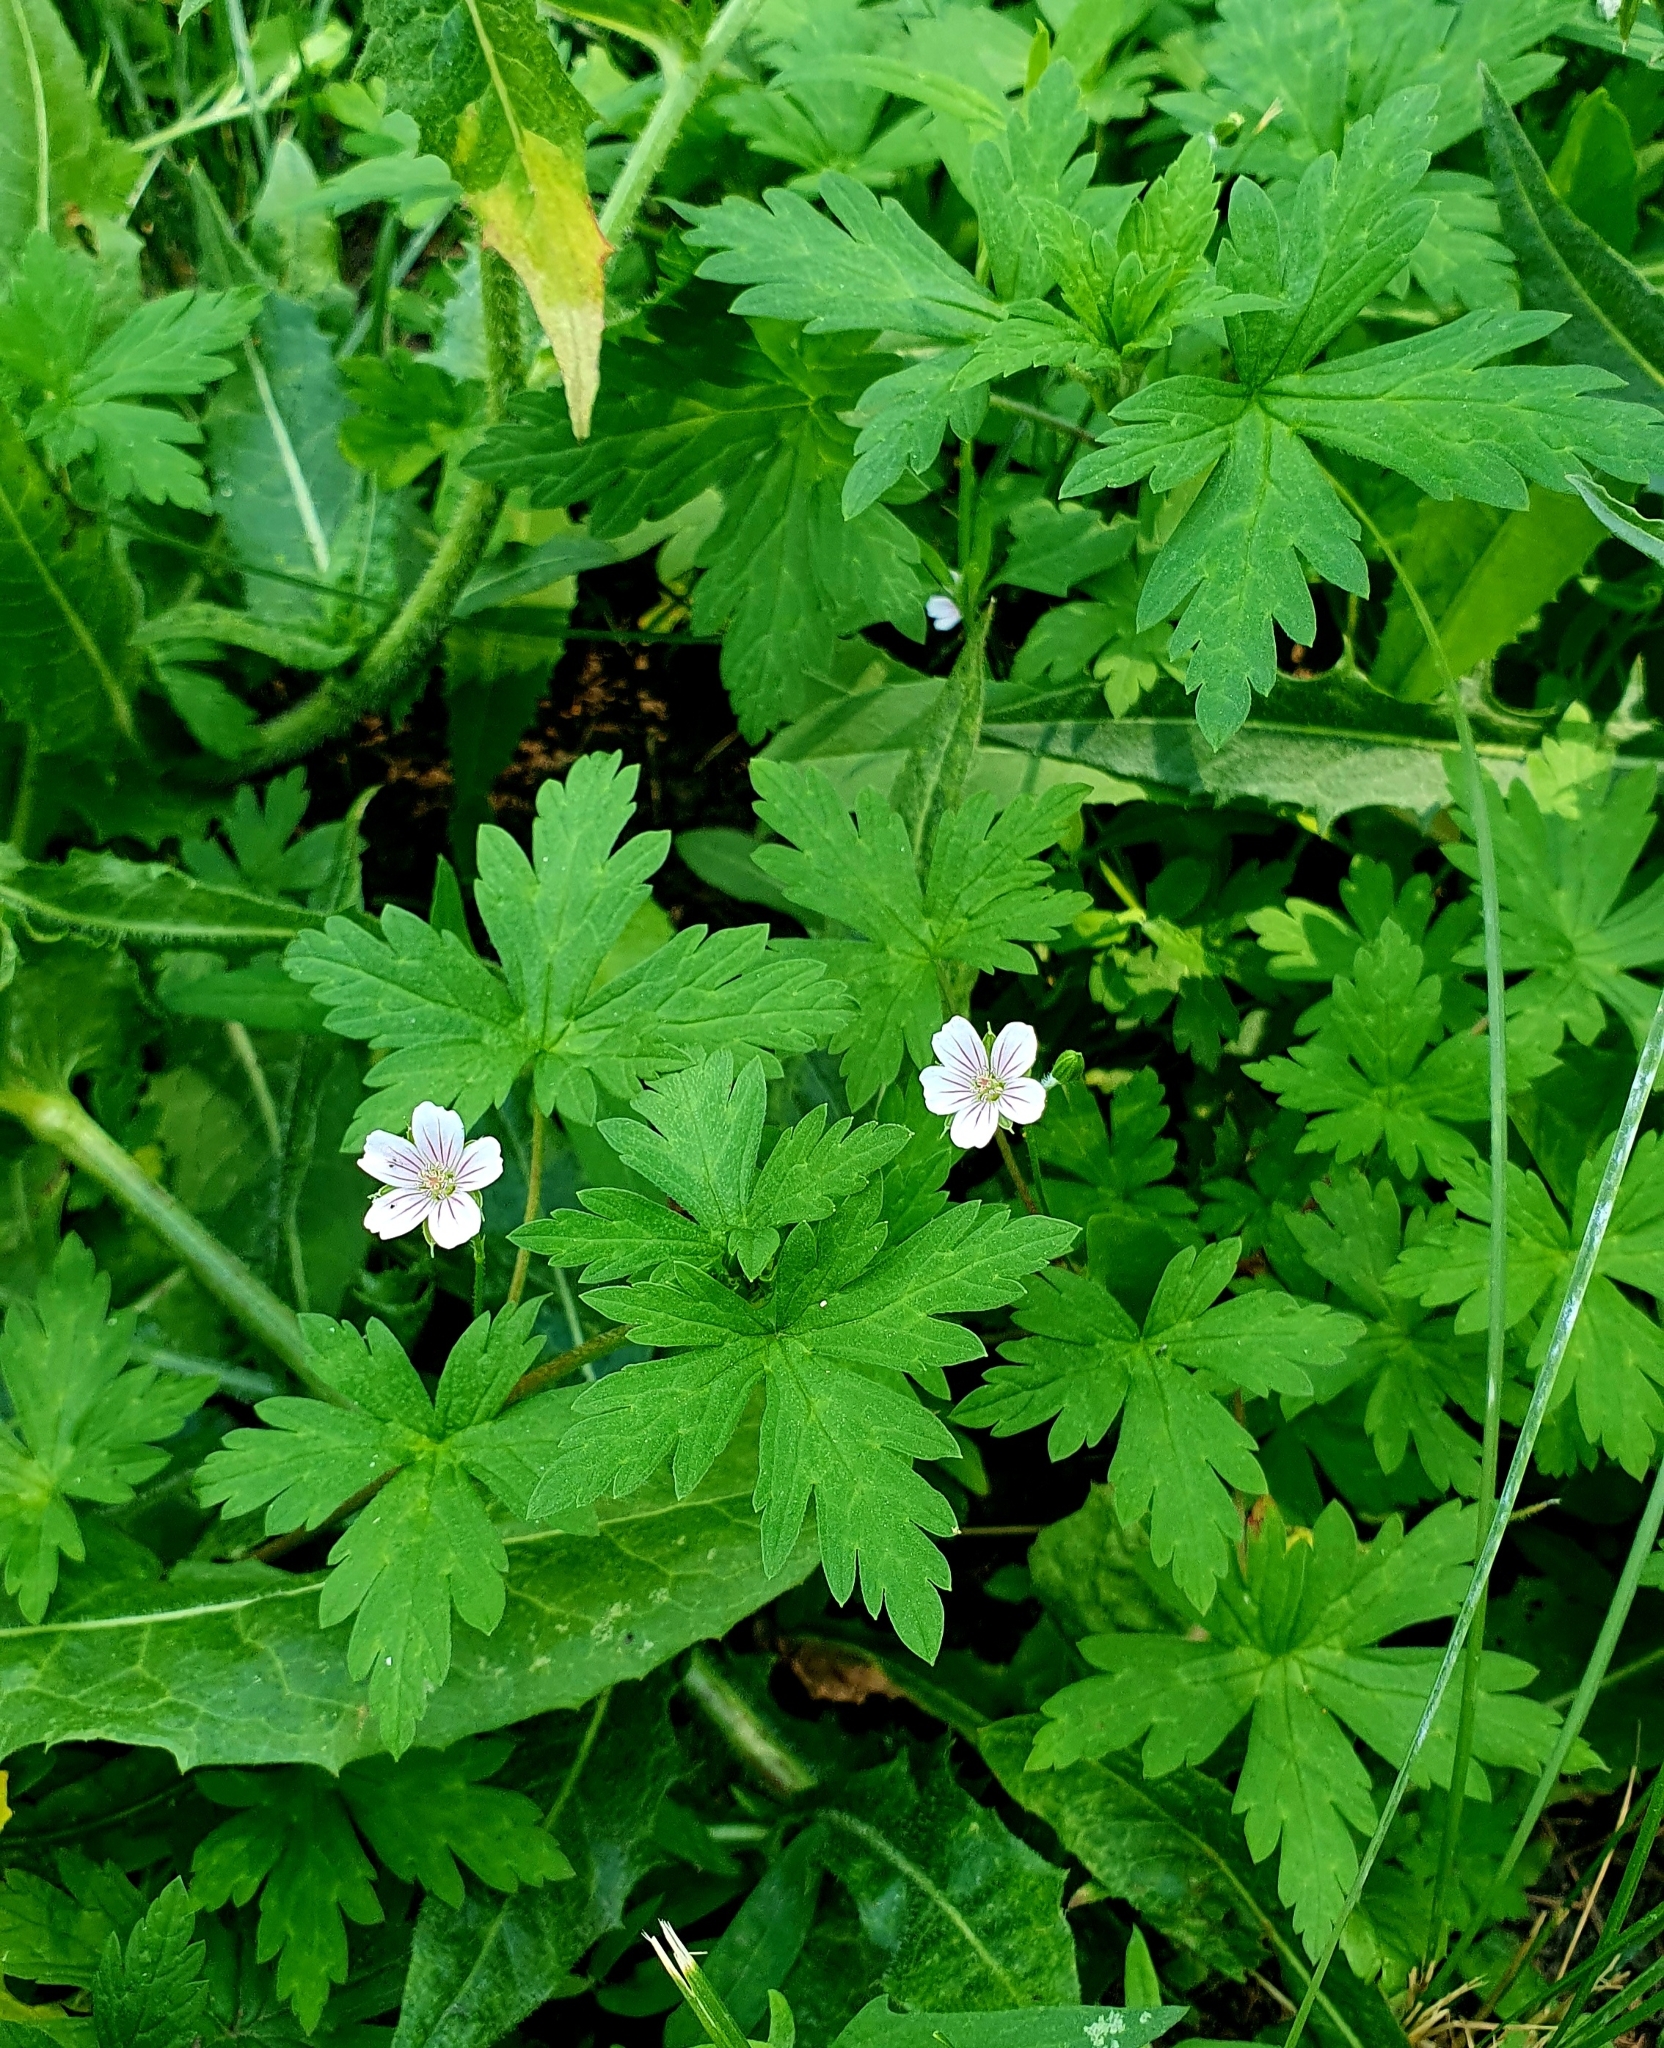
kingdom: Plantae
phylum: Tracheophyta
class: Magnoliopsida
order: Geraniales
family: Geraniaceae
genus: Geranium
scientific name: Geranium sibiricum
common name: Siberian crane's-bill
